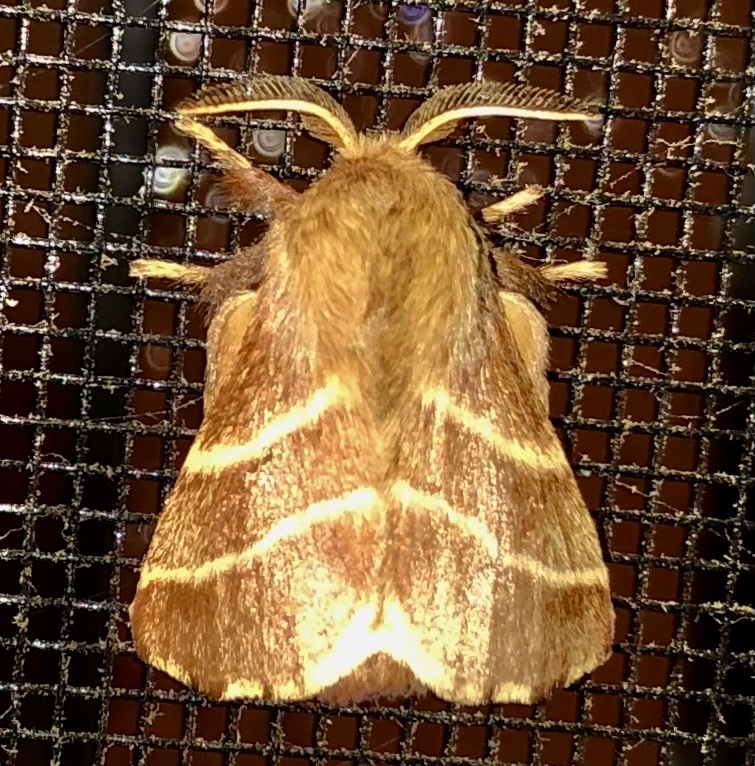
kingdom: Animalia
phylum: Arthropoda
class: Insecta
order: Lepidoptera
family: Lasiocampidae
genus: Malacosoma
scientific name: Malacosoma americana
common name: Eastern tent caterpillar moth
